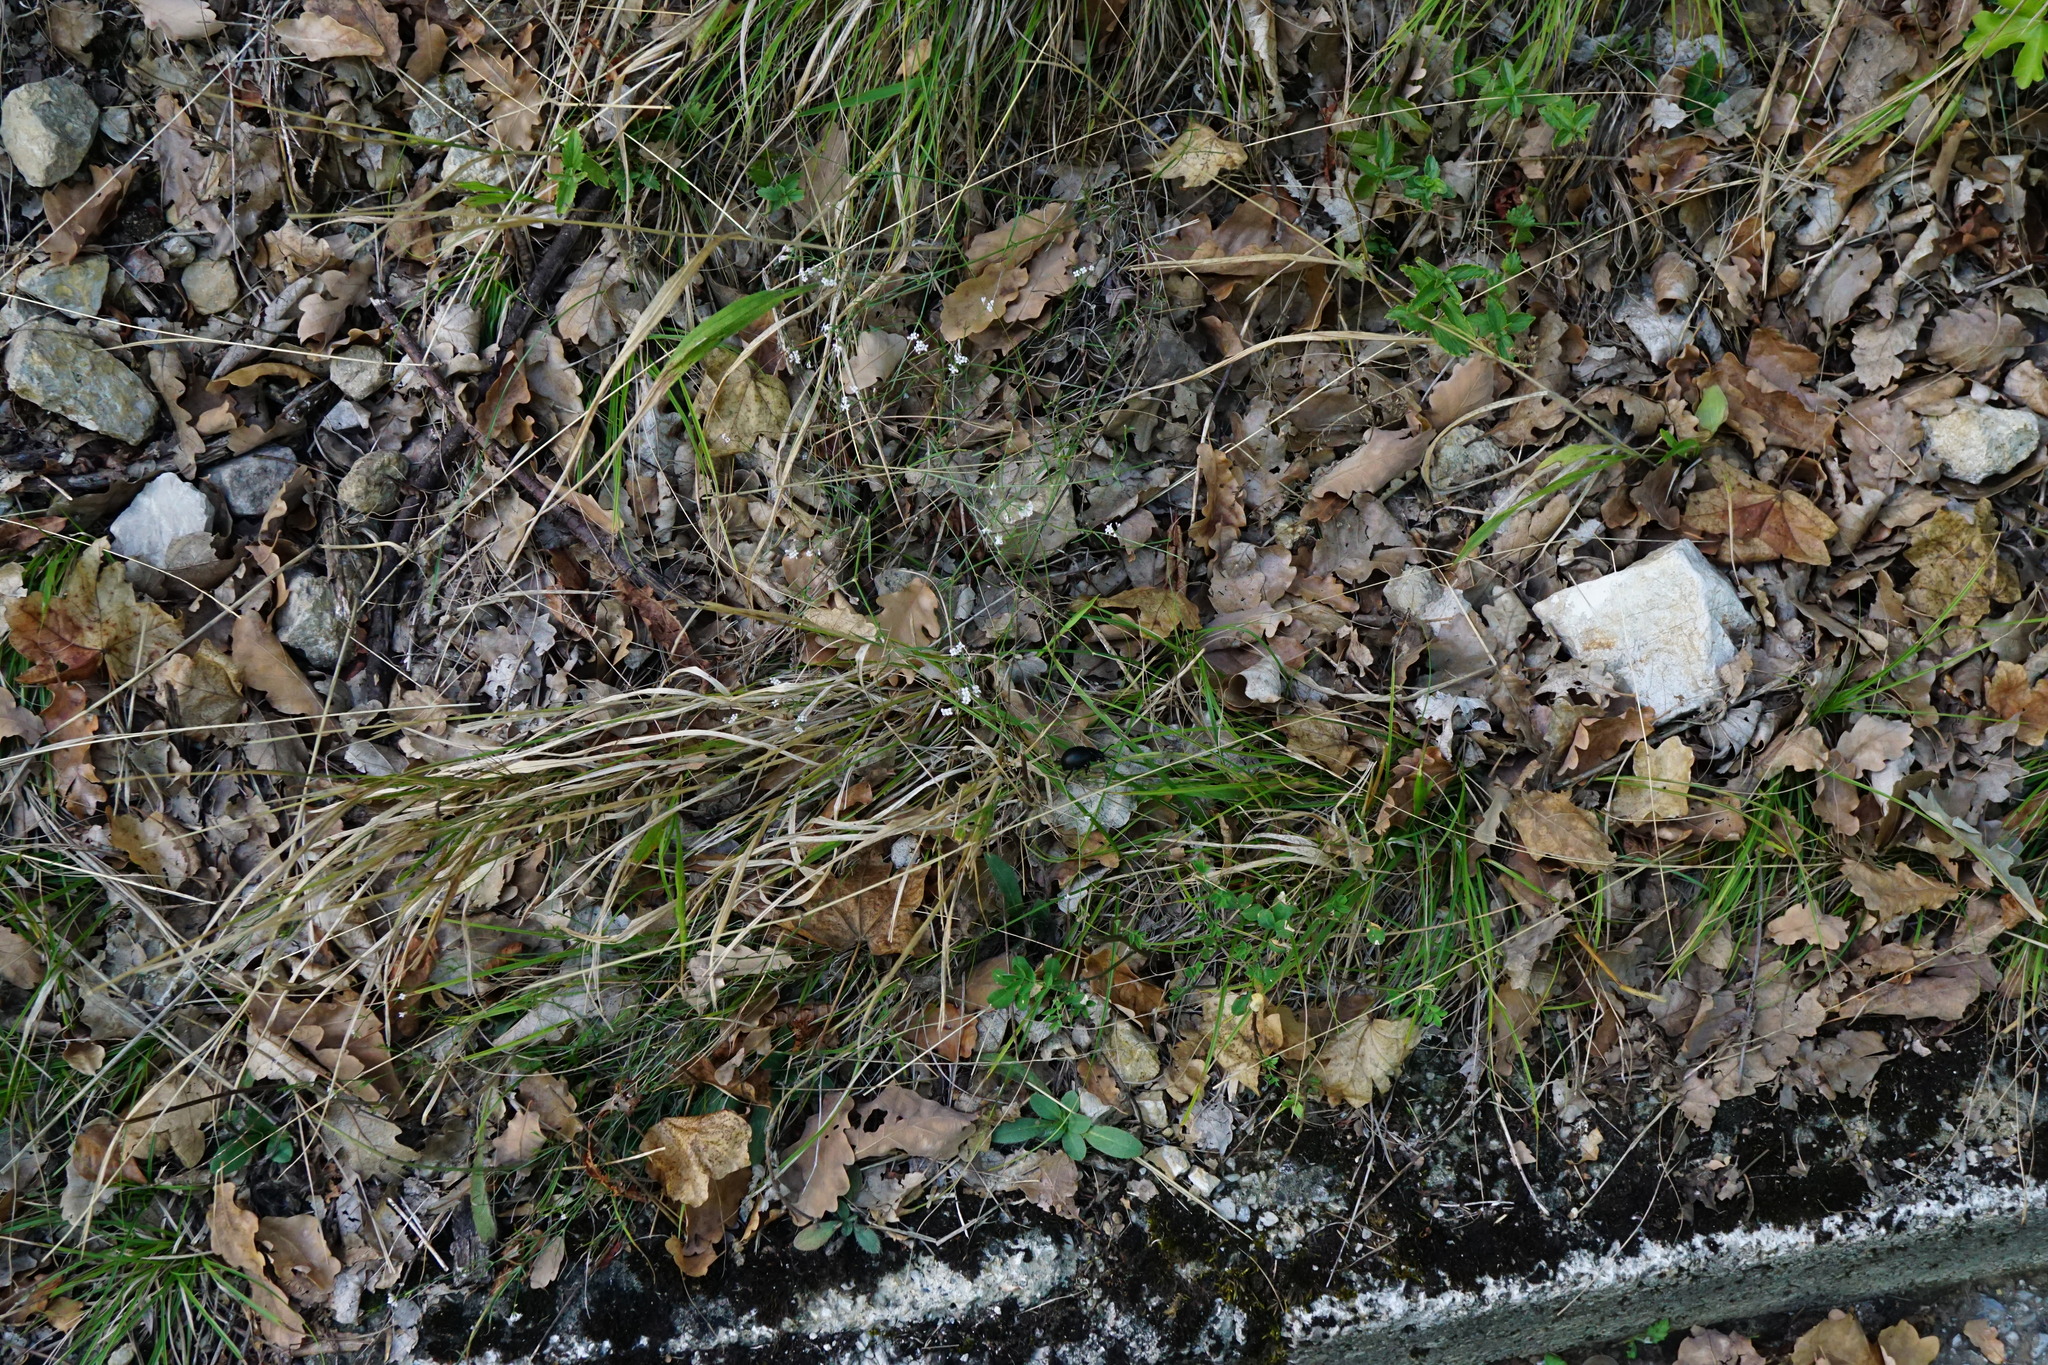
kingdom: Plantae
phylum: Tracheophyta
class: Magnoliopsida
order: Gentianales
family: Rubiaceae
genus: Cynanchica
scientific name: Cynanchica pyrenaica
